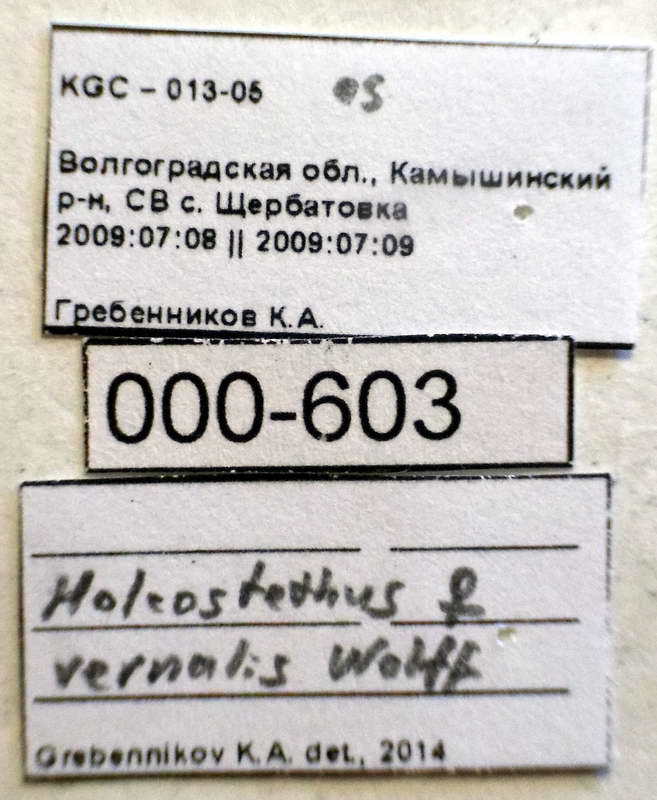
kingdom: Animalia
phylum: Arthropoda
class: Insecta
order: Hemiptera
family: Pentatomidae
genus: Holcostethus
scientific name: Holcostethus strictus
